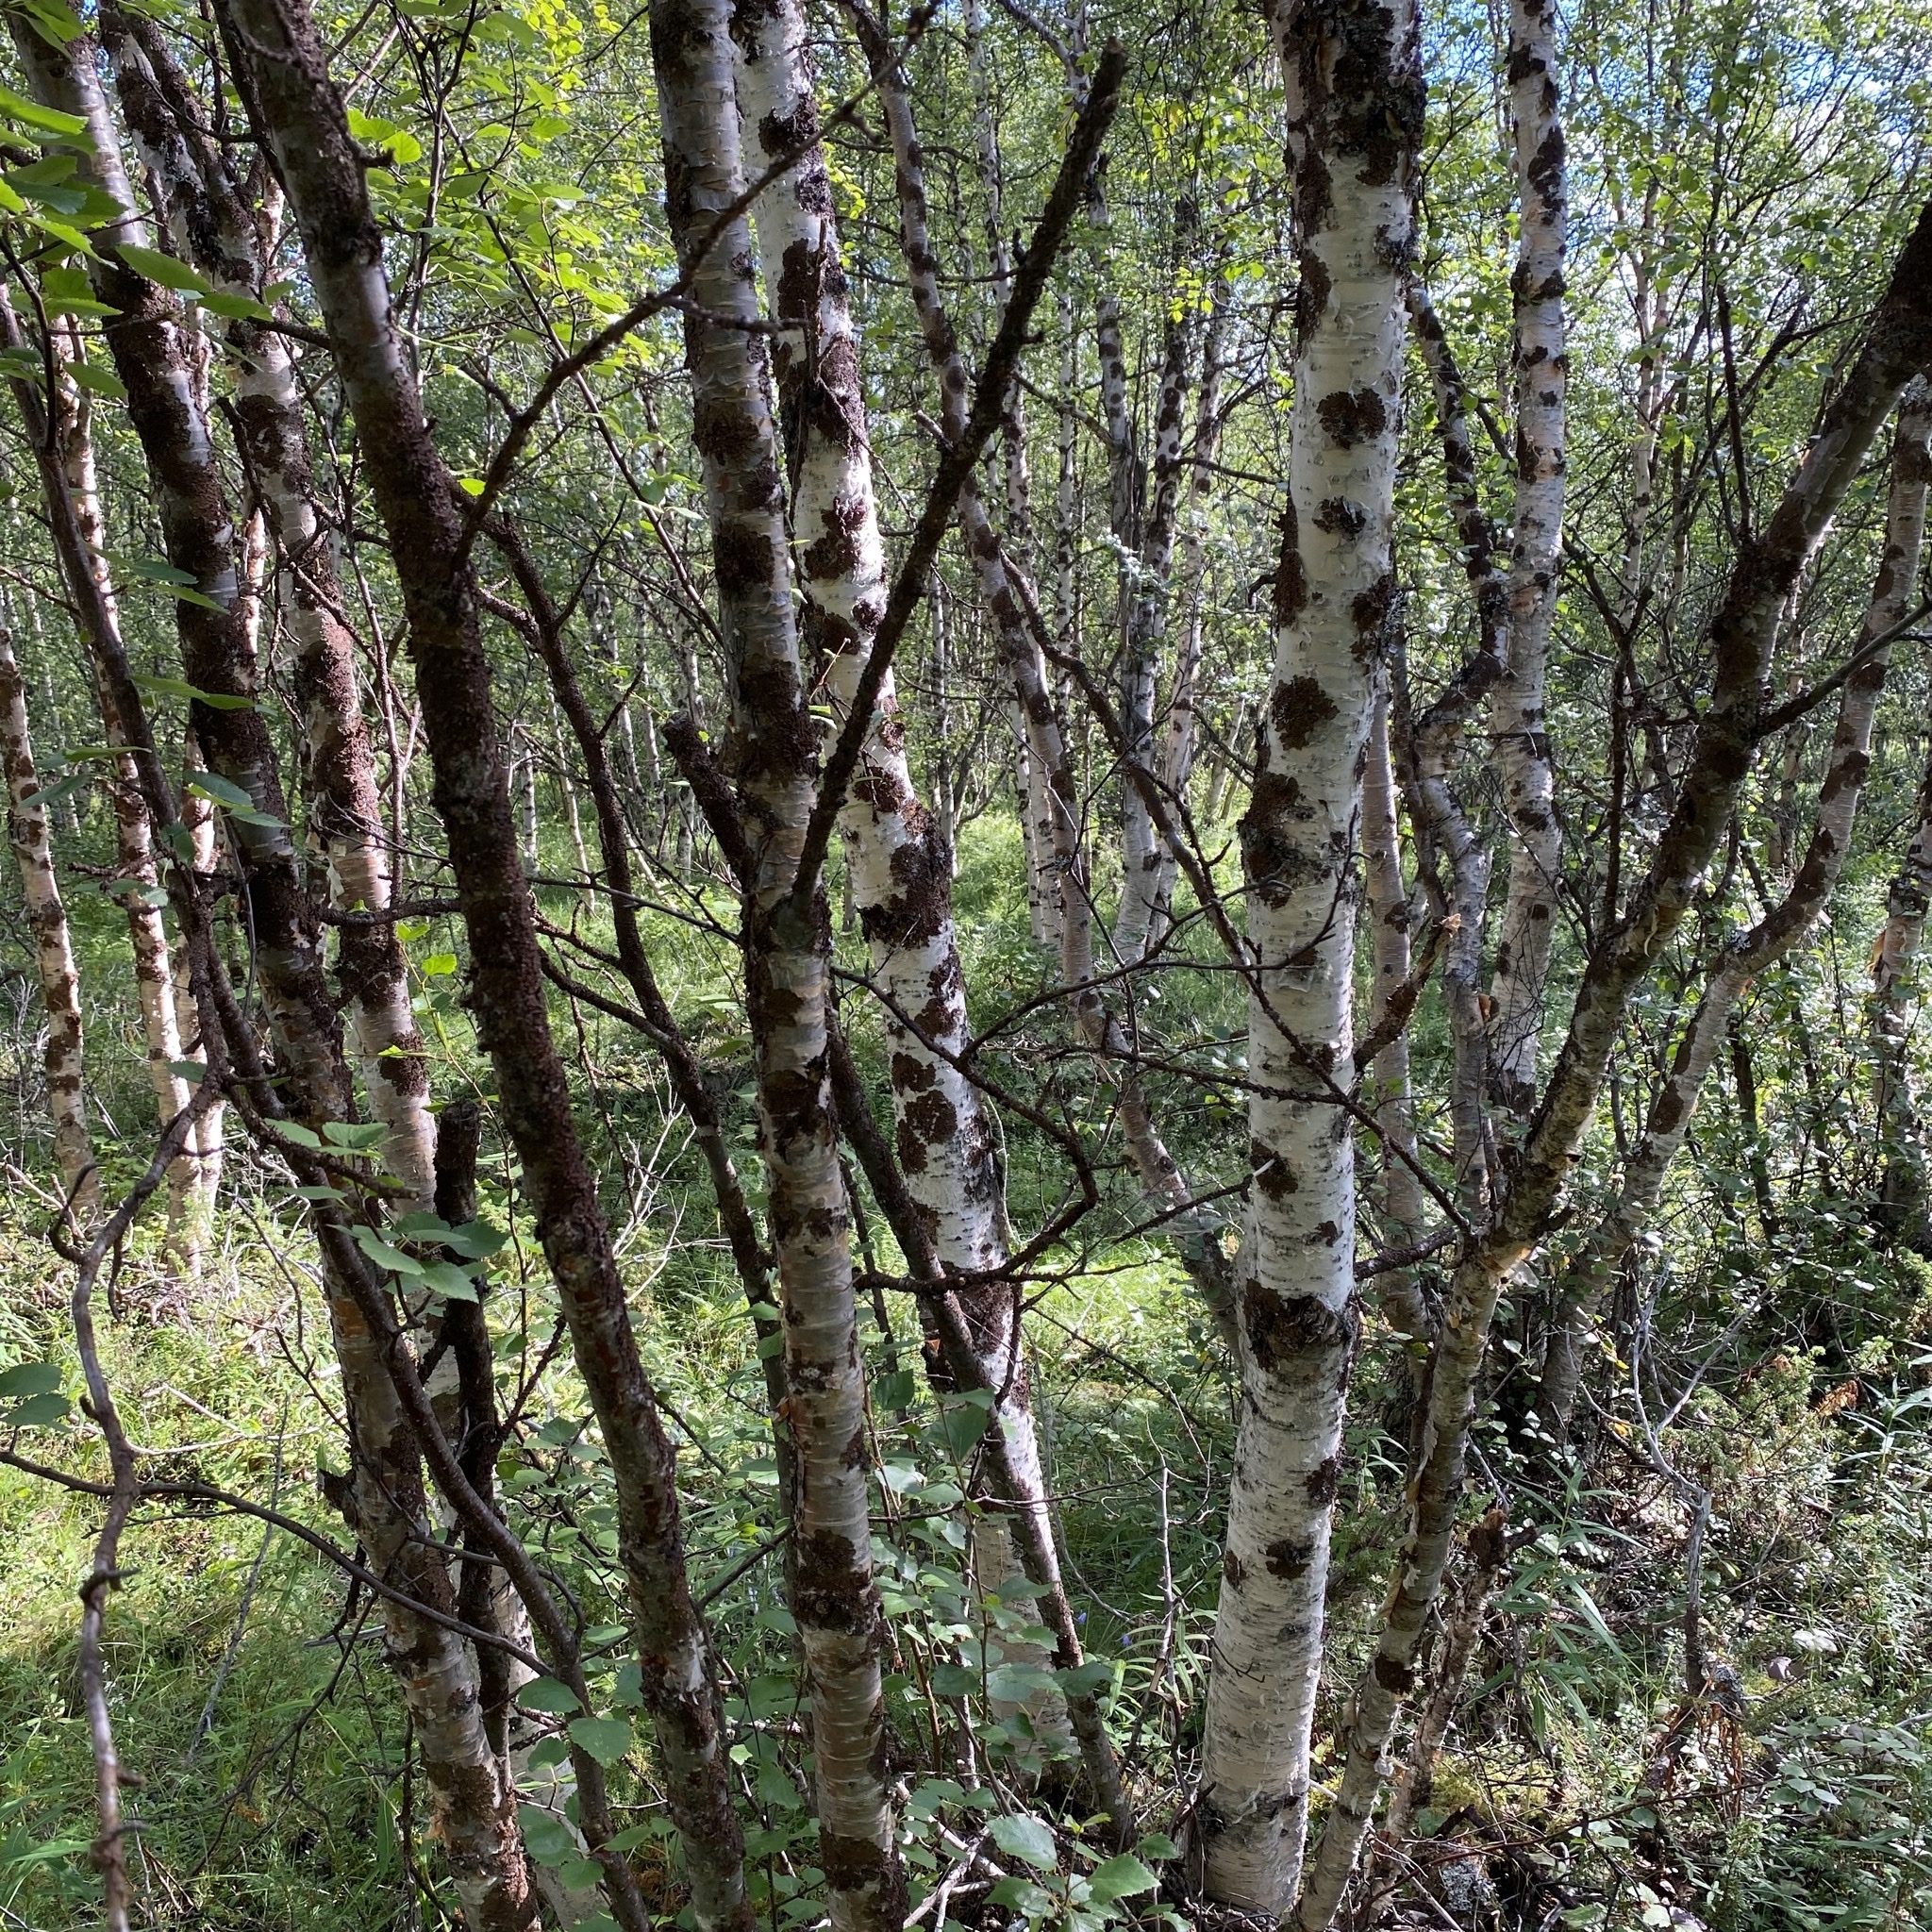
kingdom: Plantae
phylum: Tracheophyta
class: Magnoliopsida
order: Fagales
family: Betulaceae
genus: Betula
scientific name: Betula pubescens
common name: Downy birch
